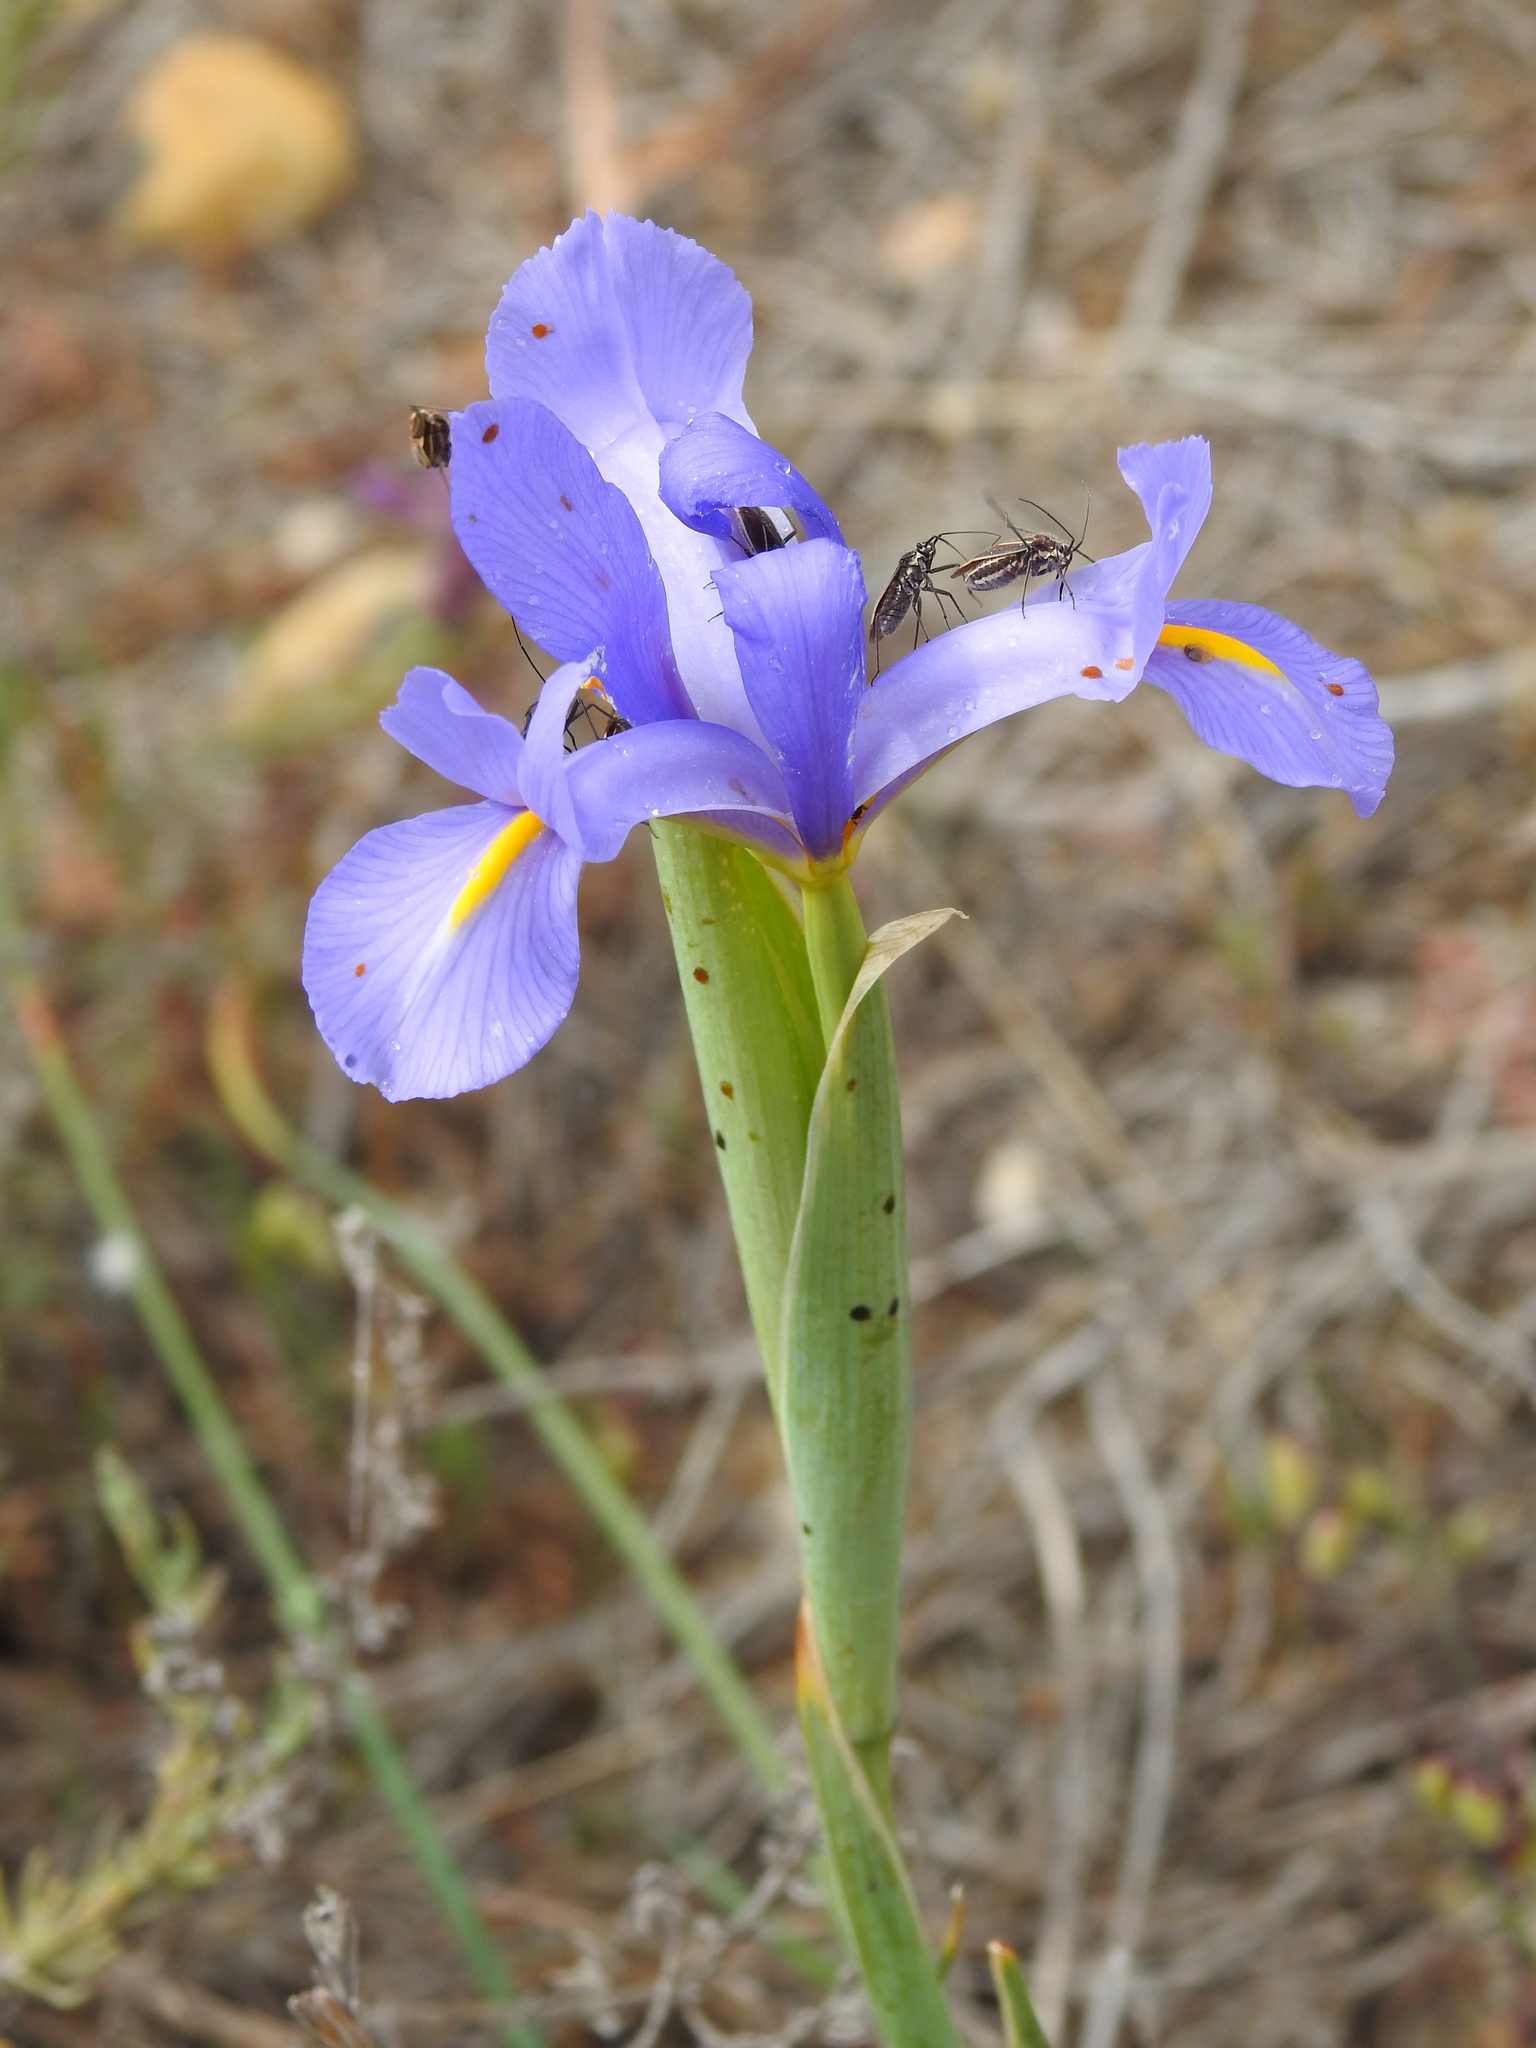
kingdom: Plantae
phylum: Tracheophyta
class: Liliopsida
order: Asparagales
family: Iridaceae
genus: Iris
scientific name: Iris xiphium
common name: Spanish iris
